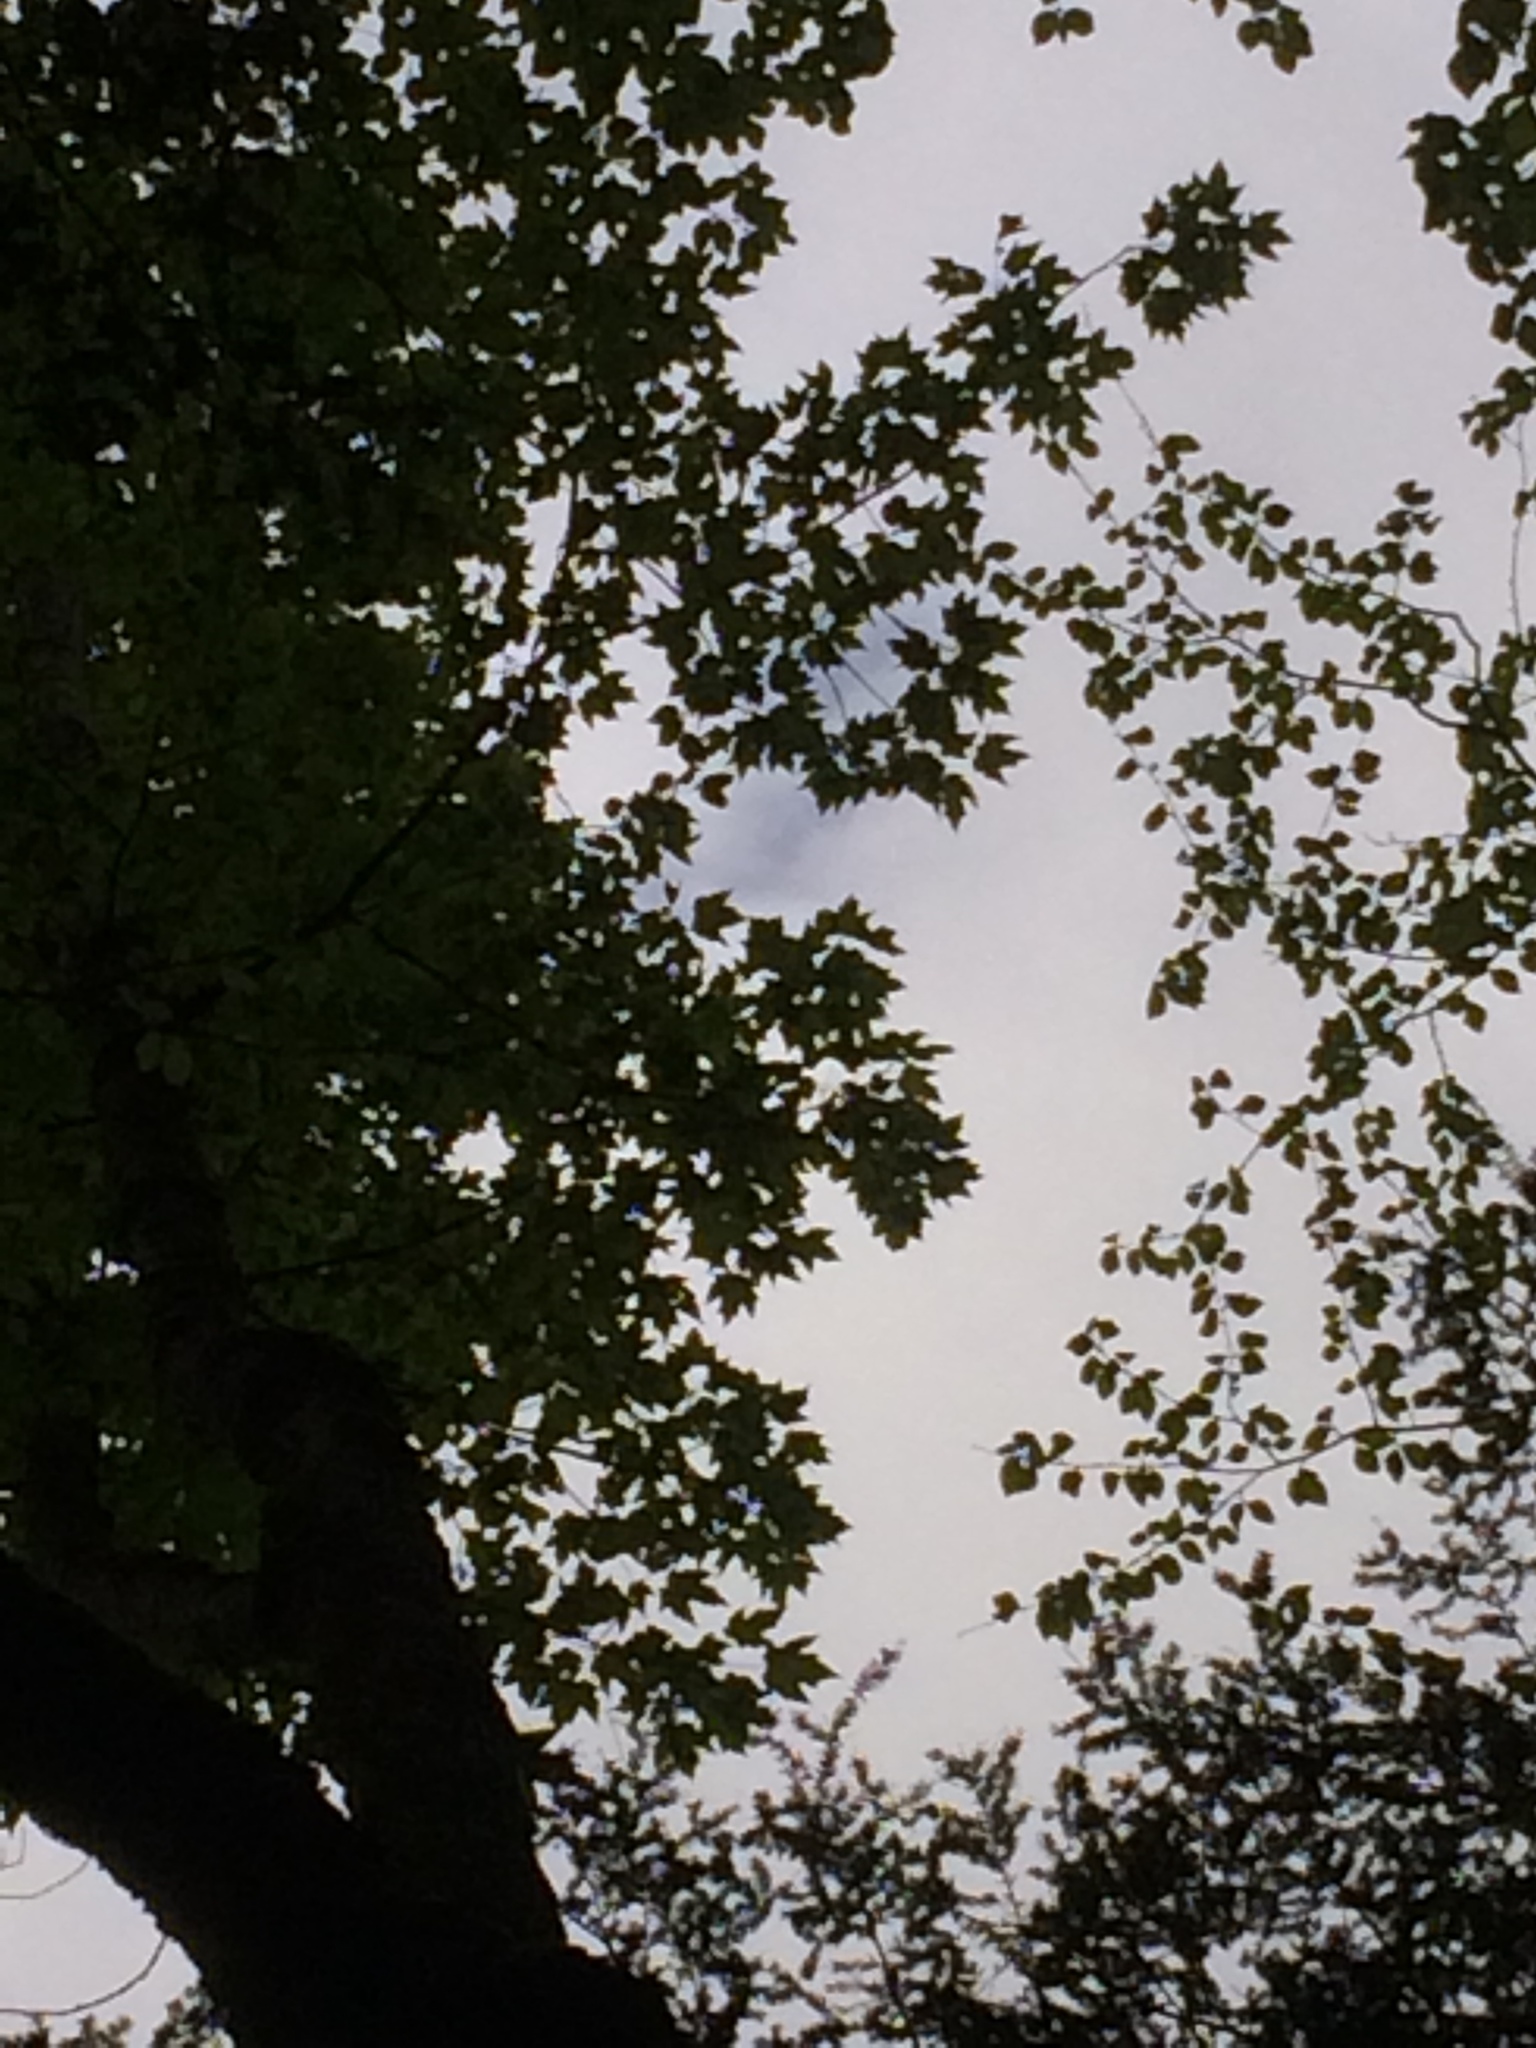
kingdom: Plantae
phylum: Tracheophyta
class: Magnoliopsida
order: Sapindales
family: Sapindaceae
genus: Acer
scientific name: Acer saccharum
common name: Sugar maple
